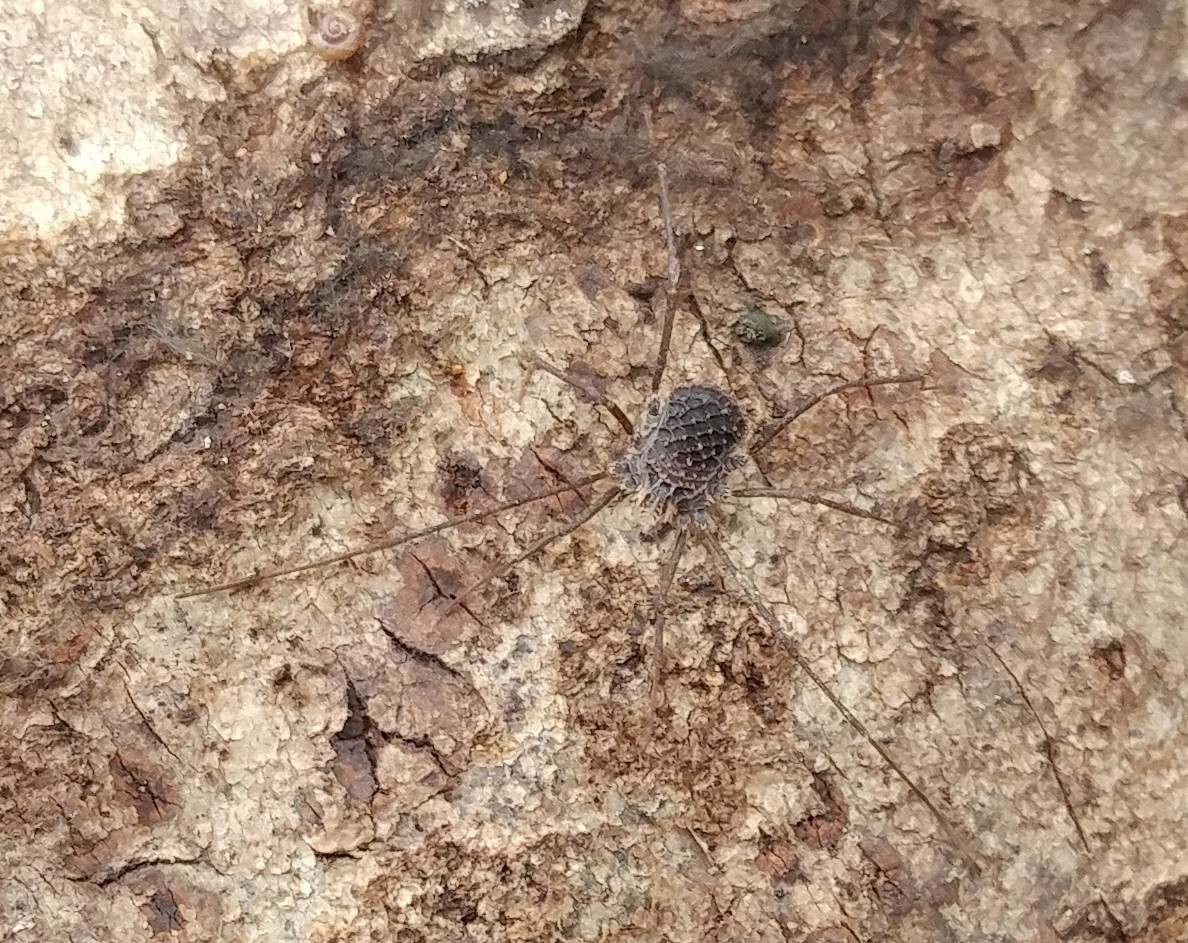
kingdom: Animalia
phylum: Arthropoda
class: Arachnida
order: Opiliones
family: Nemastomatidae
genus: Ortholasma
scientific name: Ortholasma coronadense
